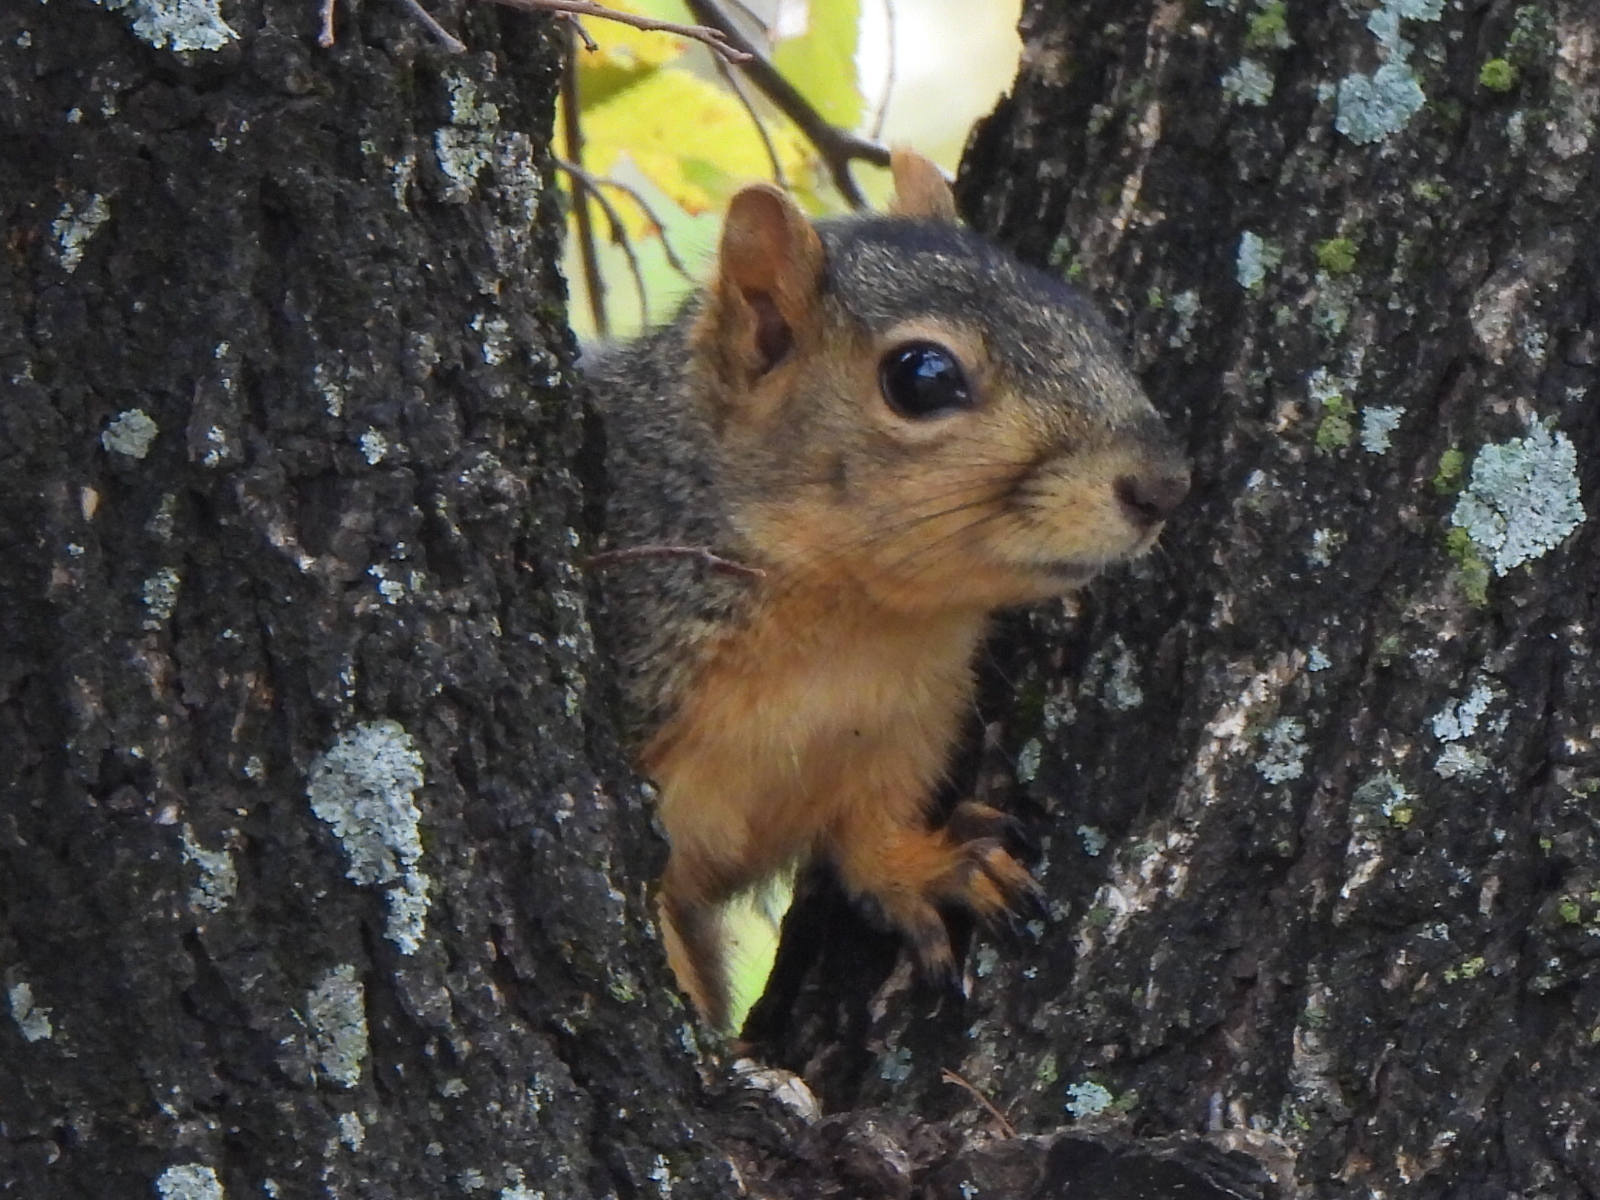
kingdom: Animalia
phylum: Chordata
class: Mammalia
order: Rodentia
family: Sciuridae
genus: Sciurus
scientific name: Sciurus niger
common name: Fox squirrel
